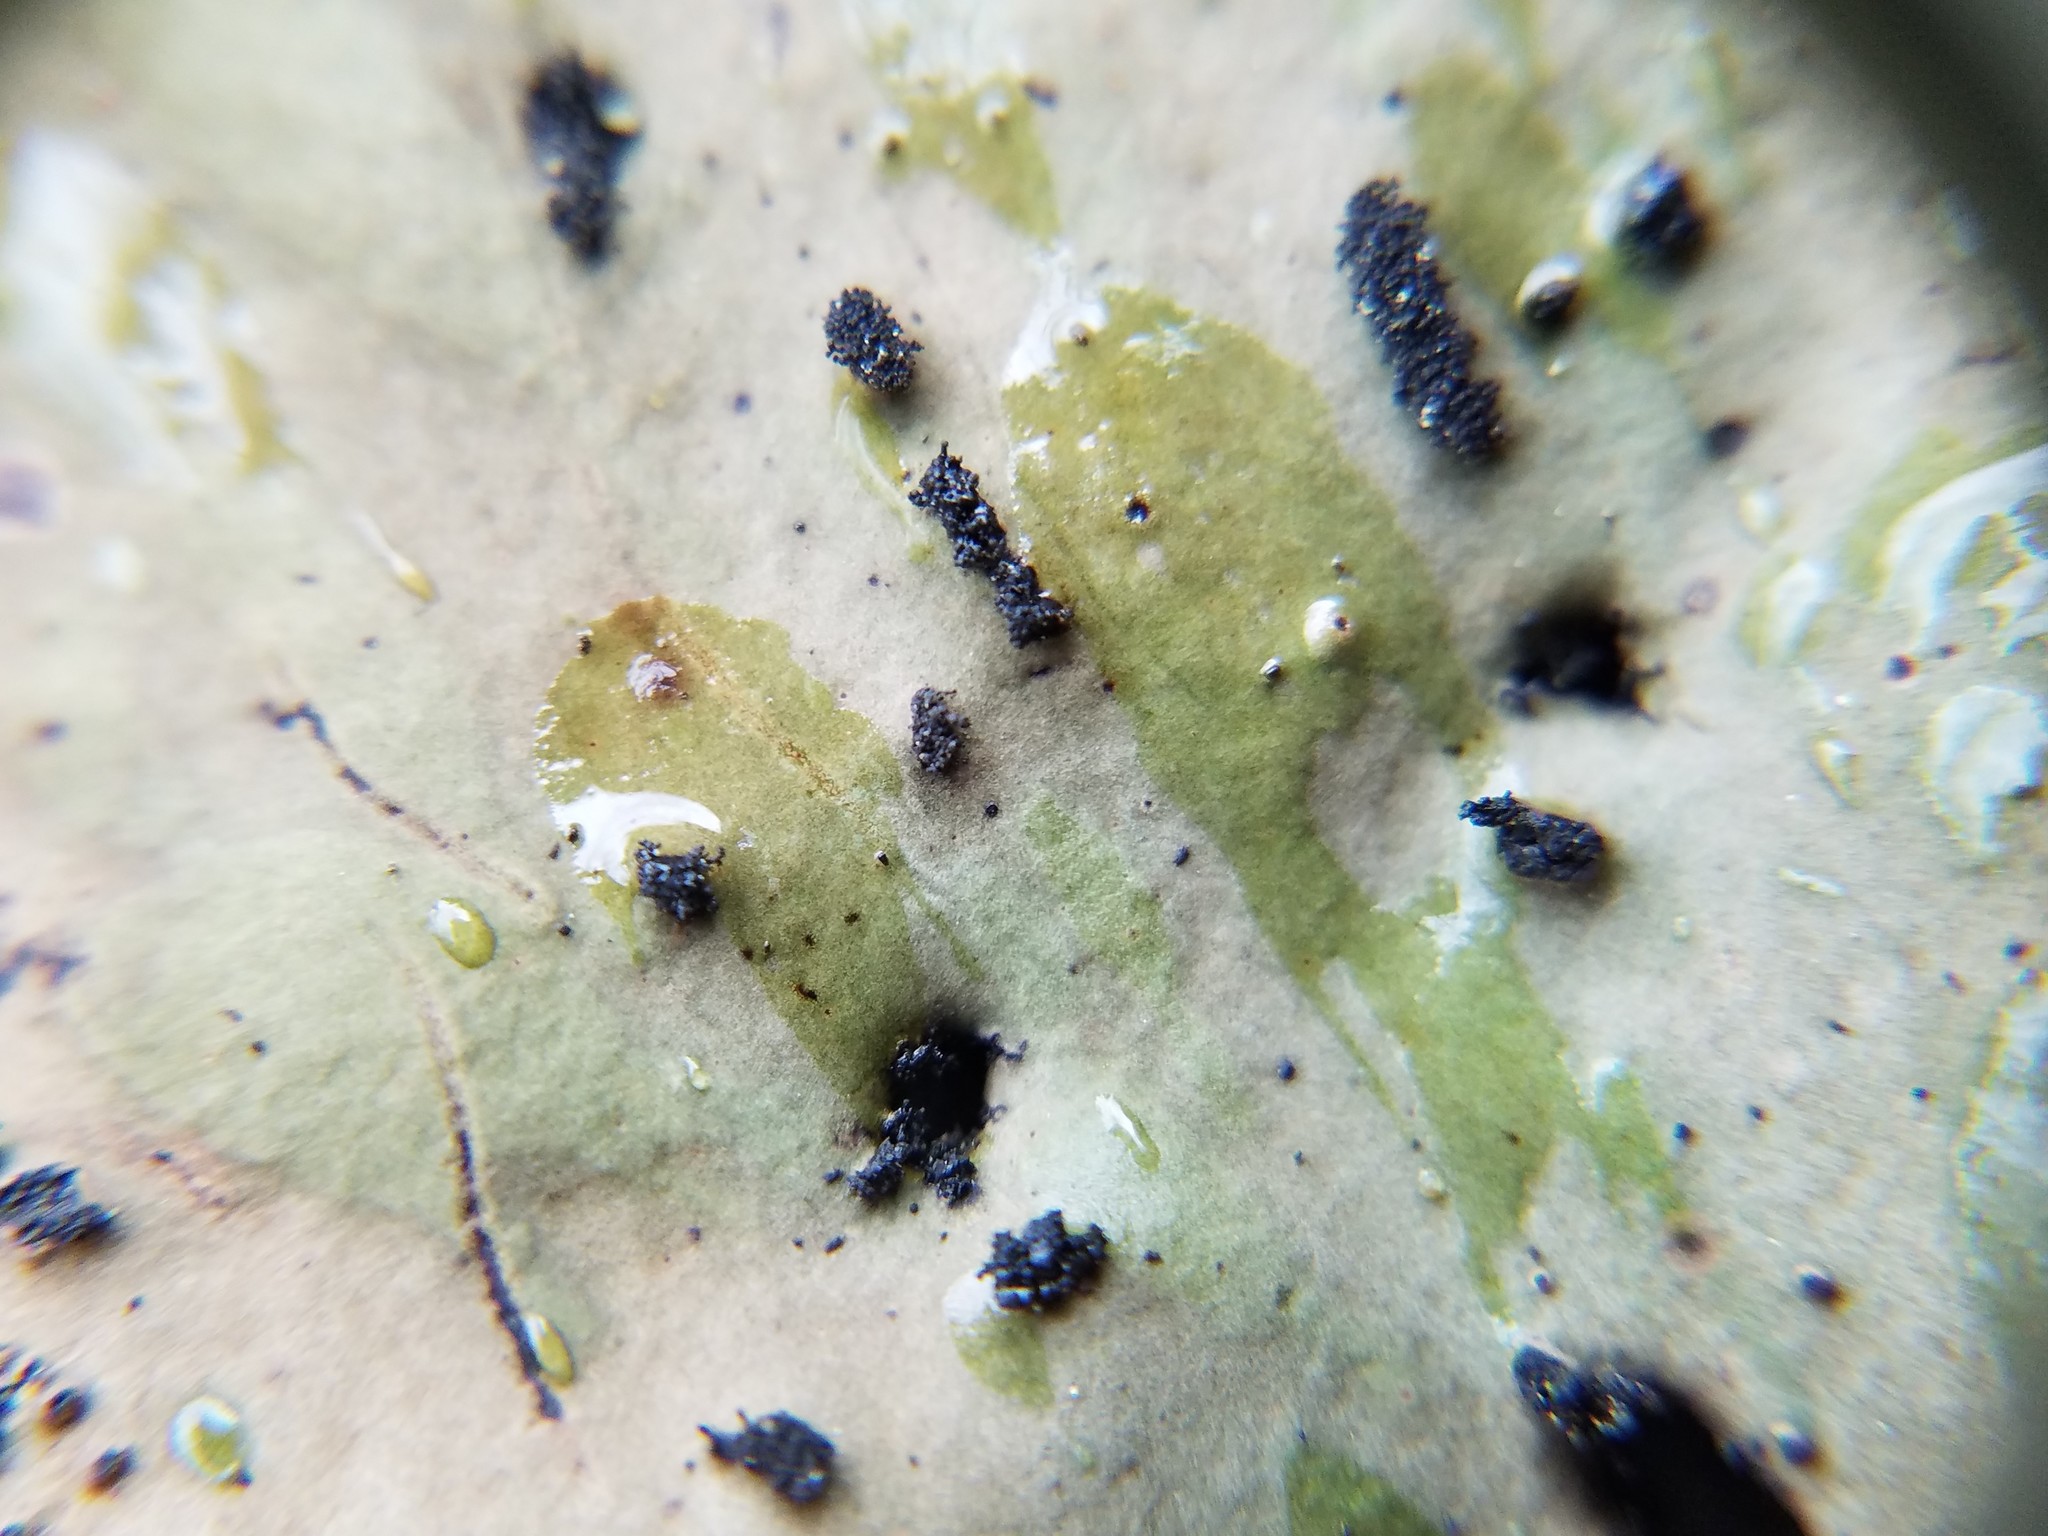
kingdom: Fungi
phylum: Ascomycota
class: Lecanoromycetes
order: Umbilicariales
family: Umbilicariaceae
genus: Umbilicaria
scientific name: Umbilicaria mammulata
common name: Smooth rock tripe
